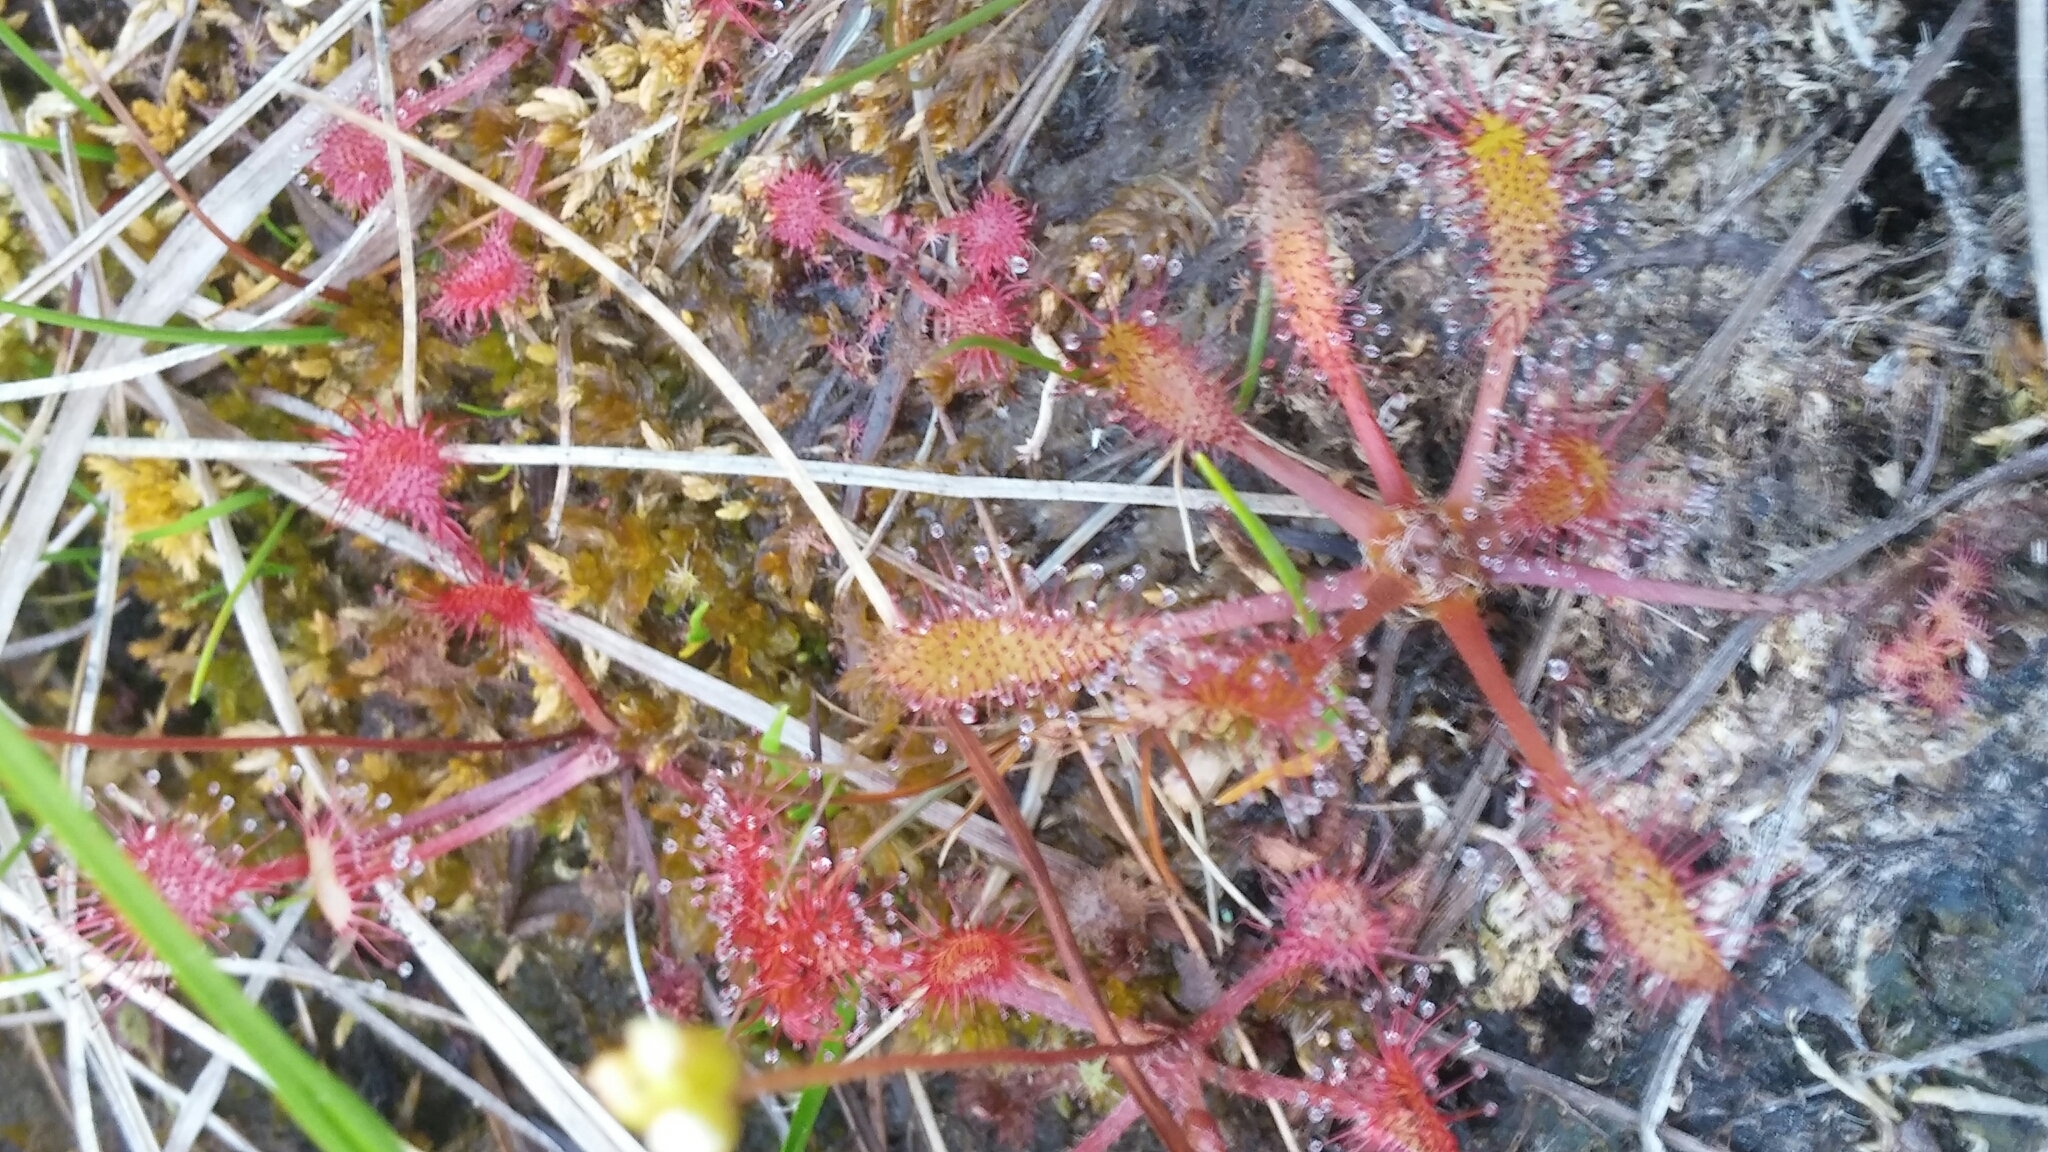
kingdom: Plantae
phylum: Tracheophyta
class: Magnoliopsida
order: Caryophyllales
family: Droseraceae
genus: Drosera
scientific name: Drosera anglica
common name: Great sundew
